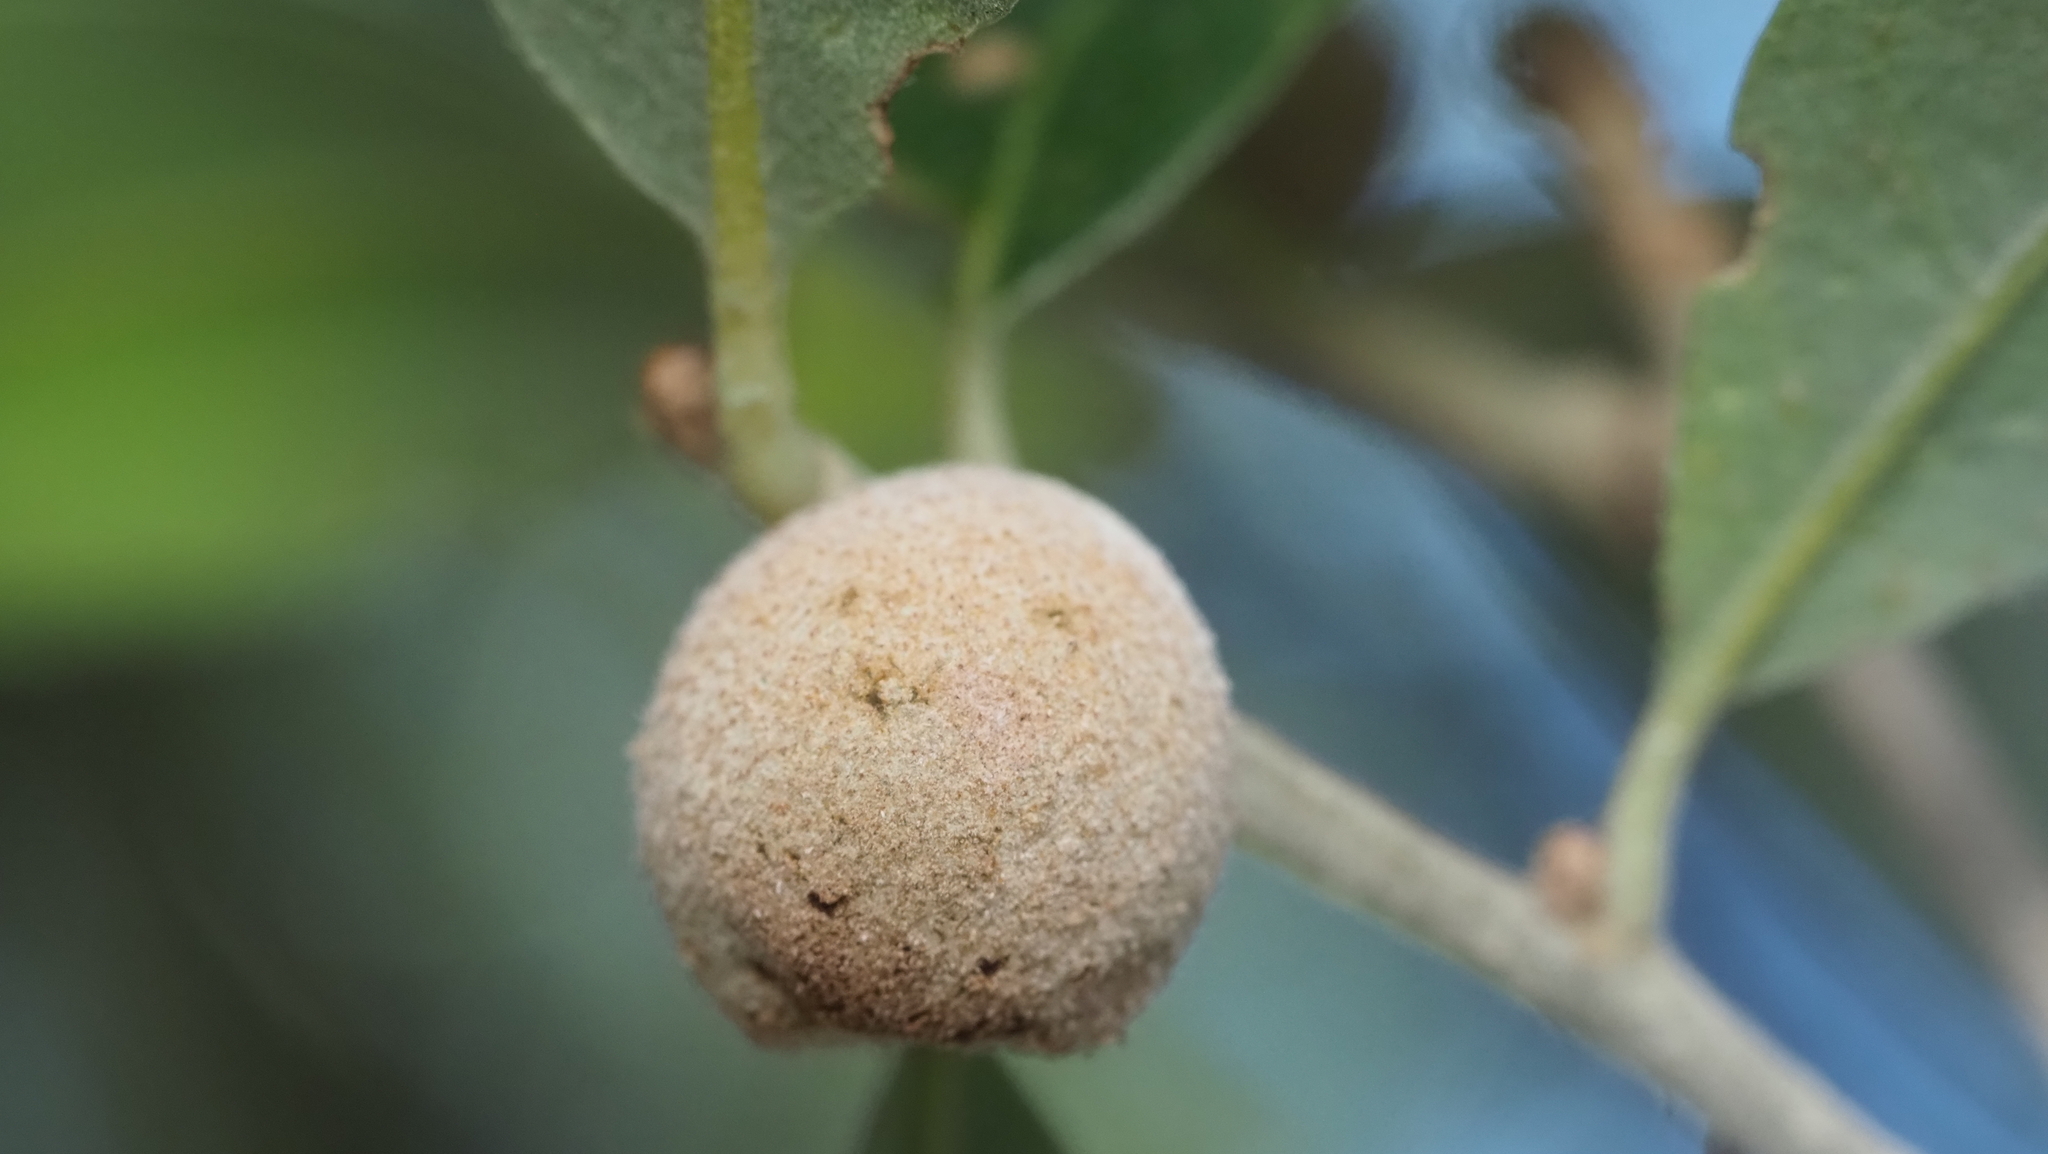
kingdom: Animalia
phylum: Arthropoda
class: Insecta
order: Hymenoptera
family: Cynipidae
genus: Disholcaspis
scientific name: Disholcaspis
